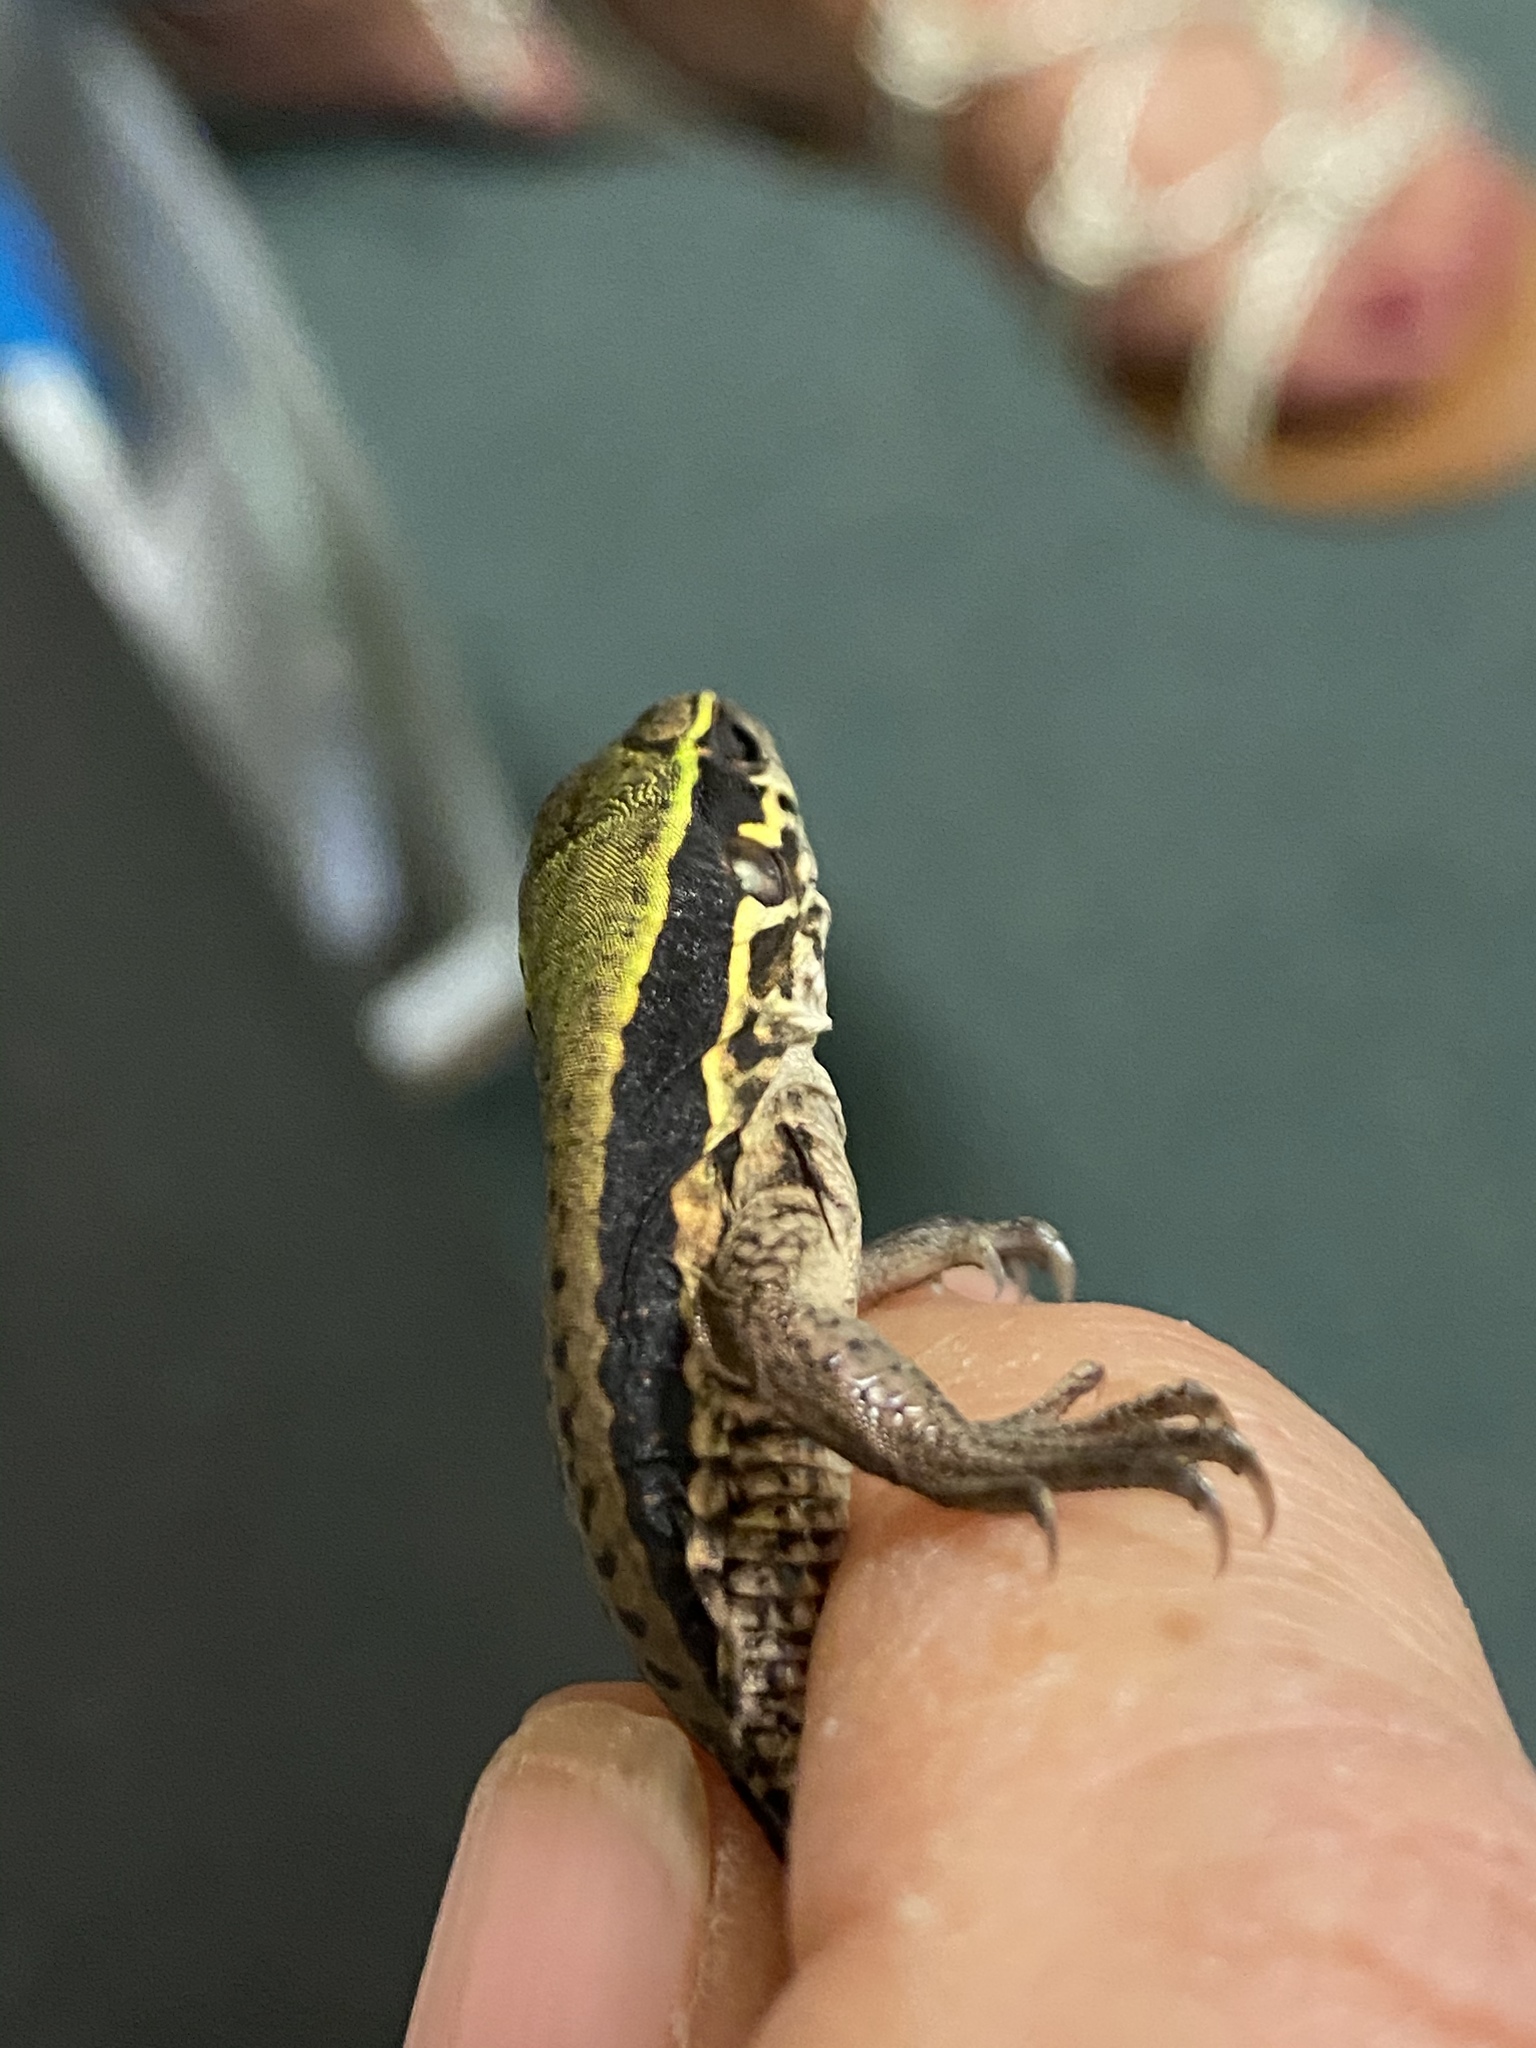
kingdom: Animalia
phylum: Chordata
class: Squamata
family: Teiidae
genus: Ameiva
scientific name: Ameiva ameiva
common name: Giant ameiva
